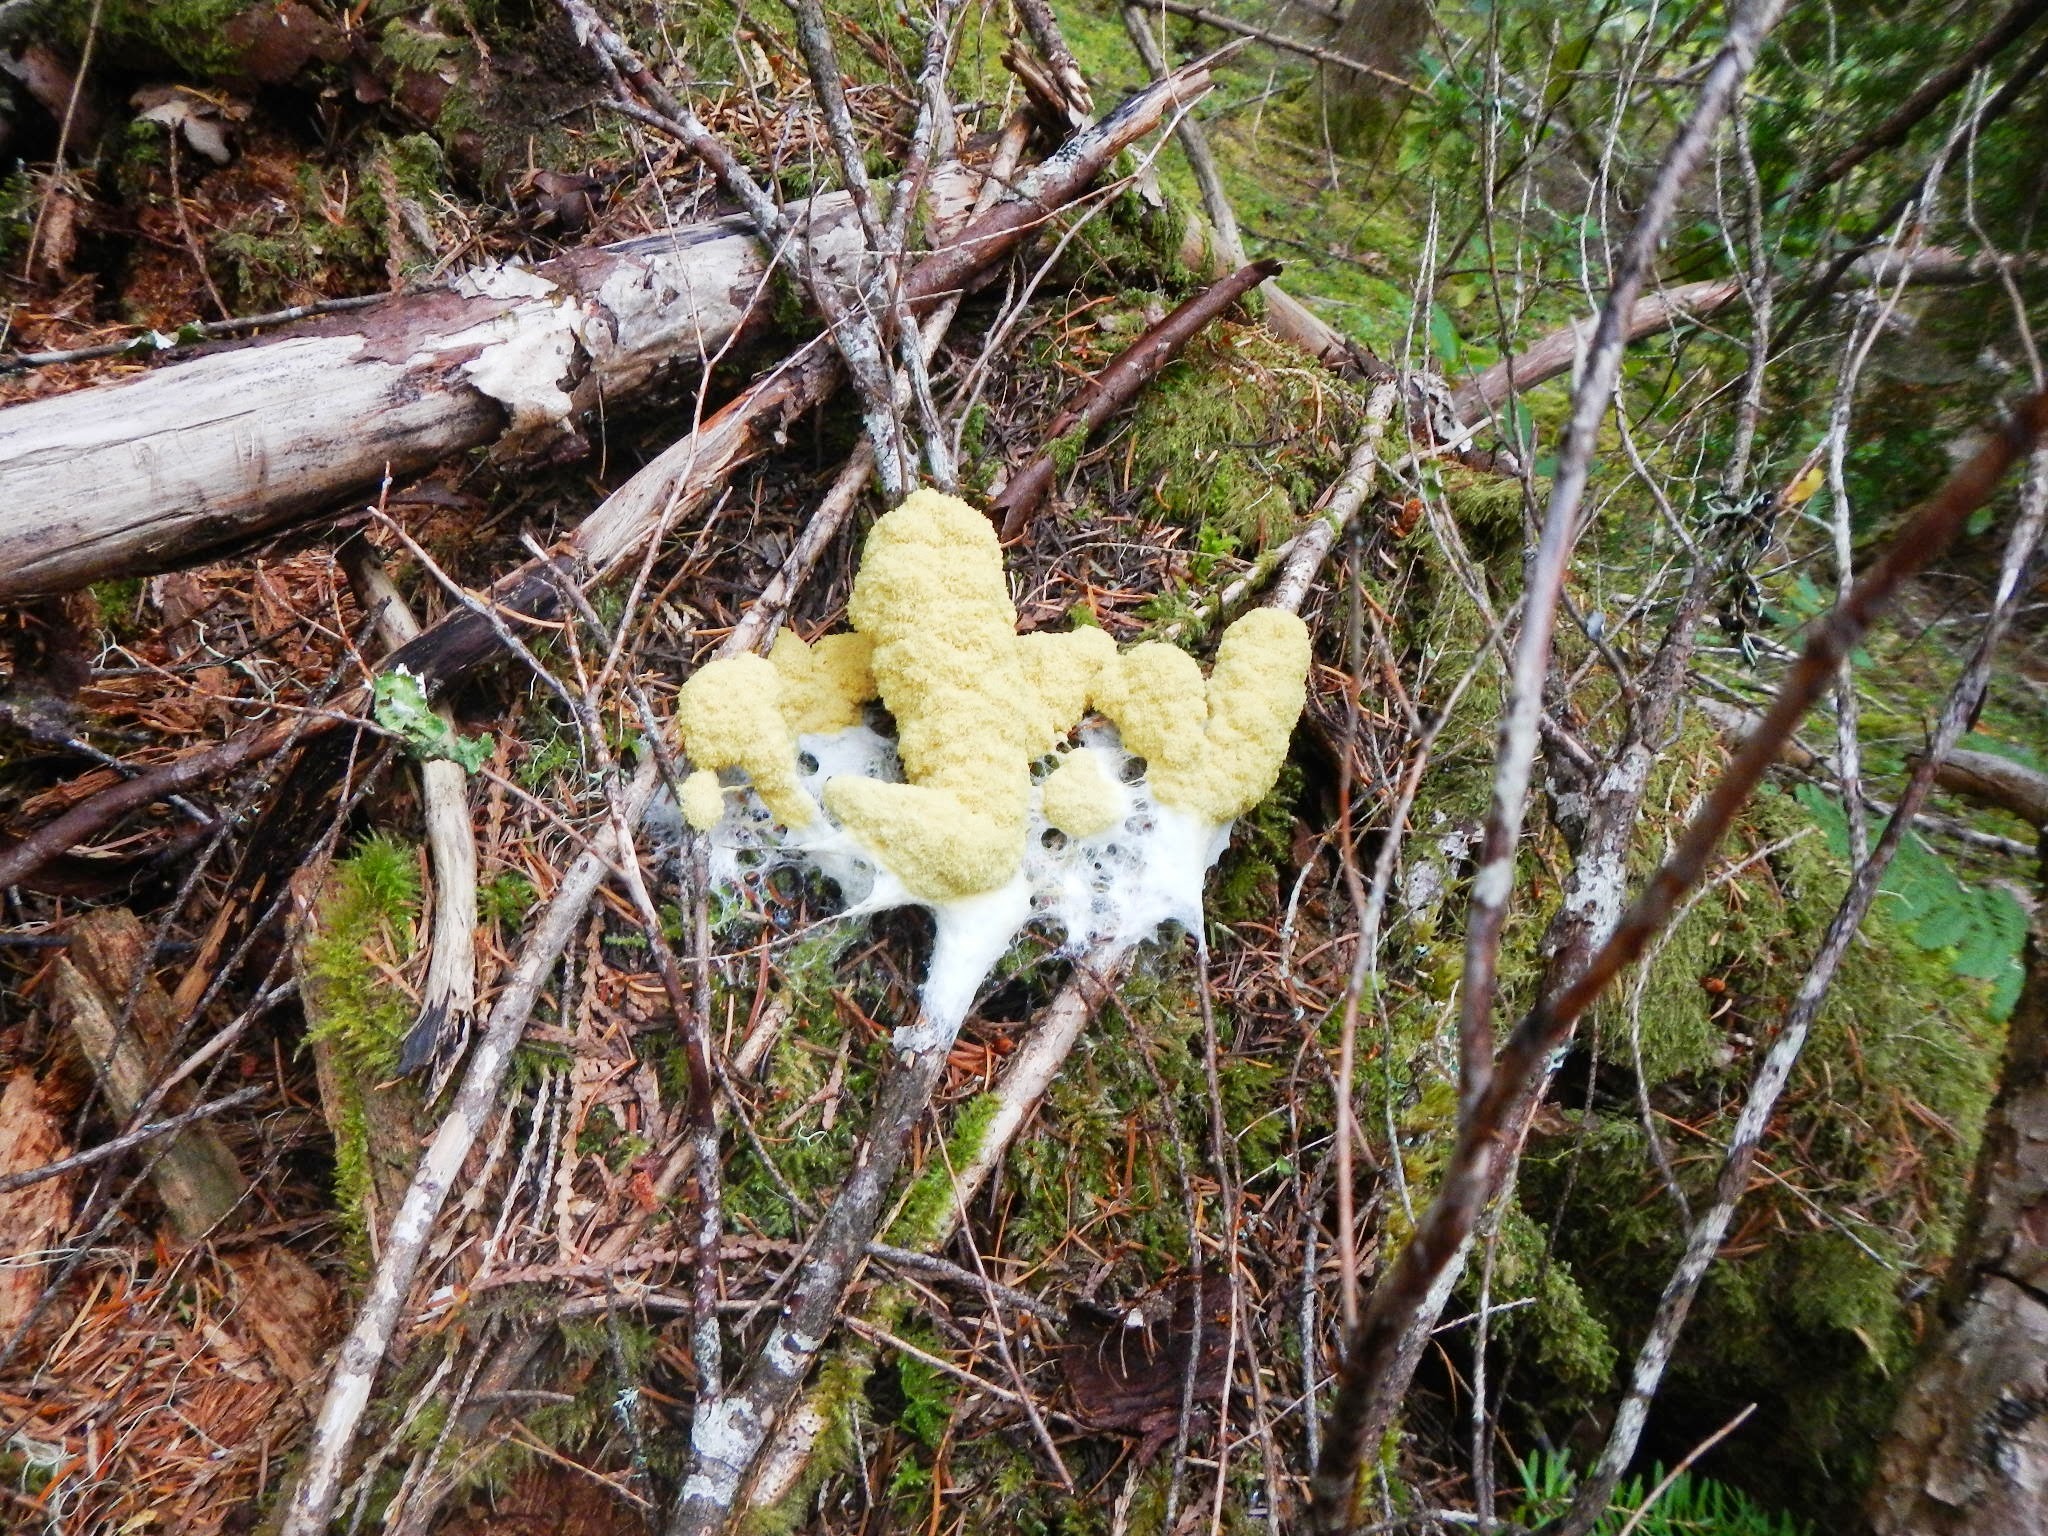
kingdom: Protozoa
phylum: Mycetozoa
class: Myxomycetes
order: Physarales
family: Physaraceae
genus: Fuligo
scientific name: Fuligo septica
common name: Dog vomit slime mold
